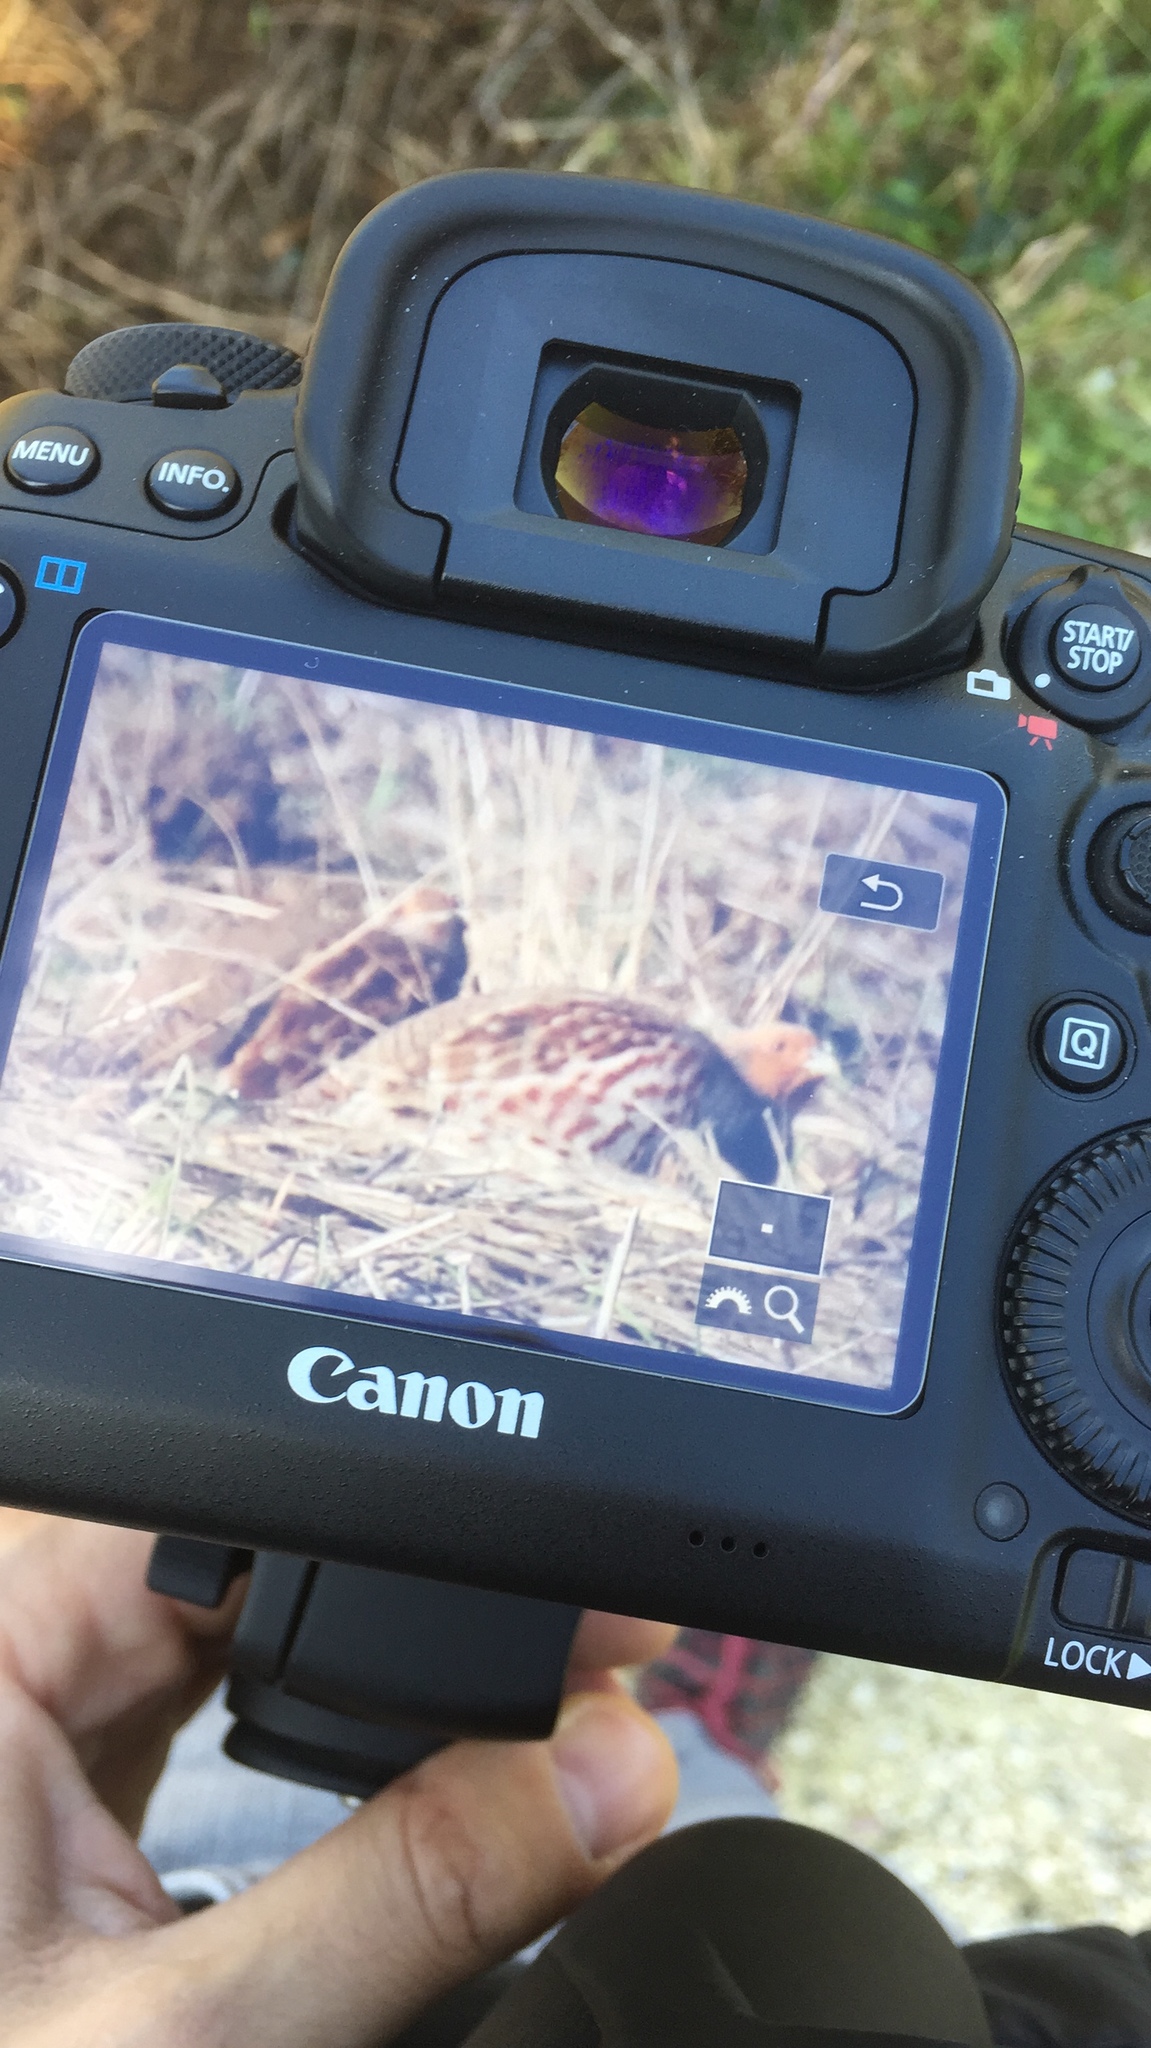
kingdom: Animalia
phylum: Chordata
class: Aves
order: Galliformes
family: Phasianidae
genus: Perdix
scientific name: Perdix perdix
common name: Grey partridge
